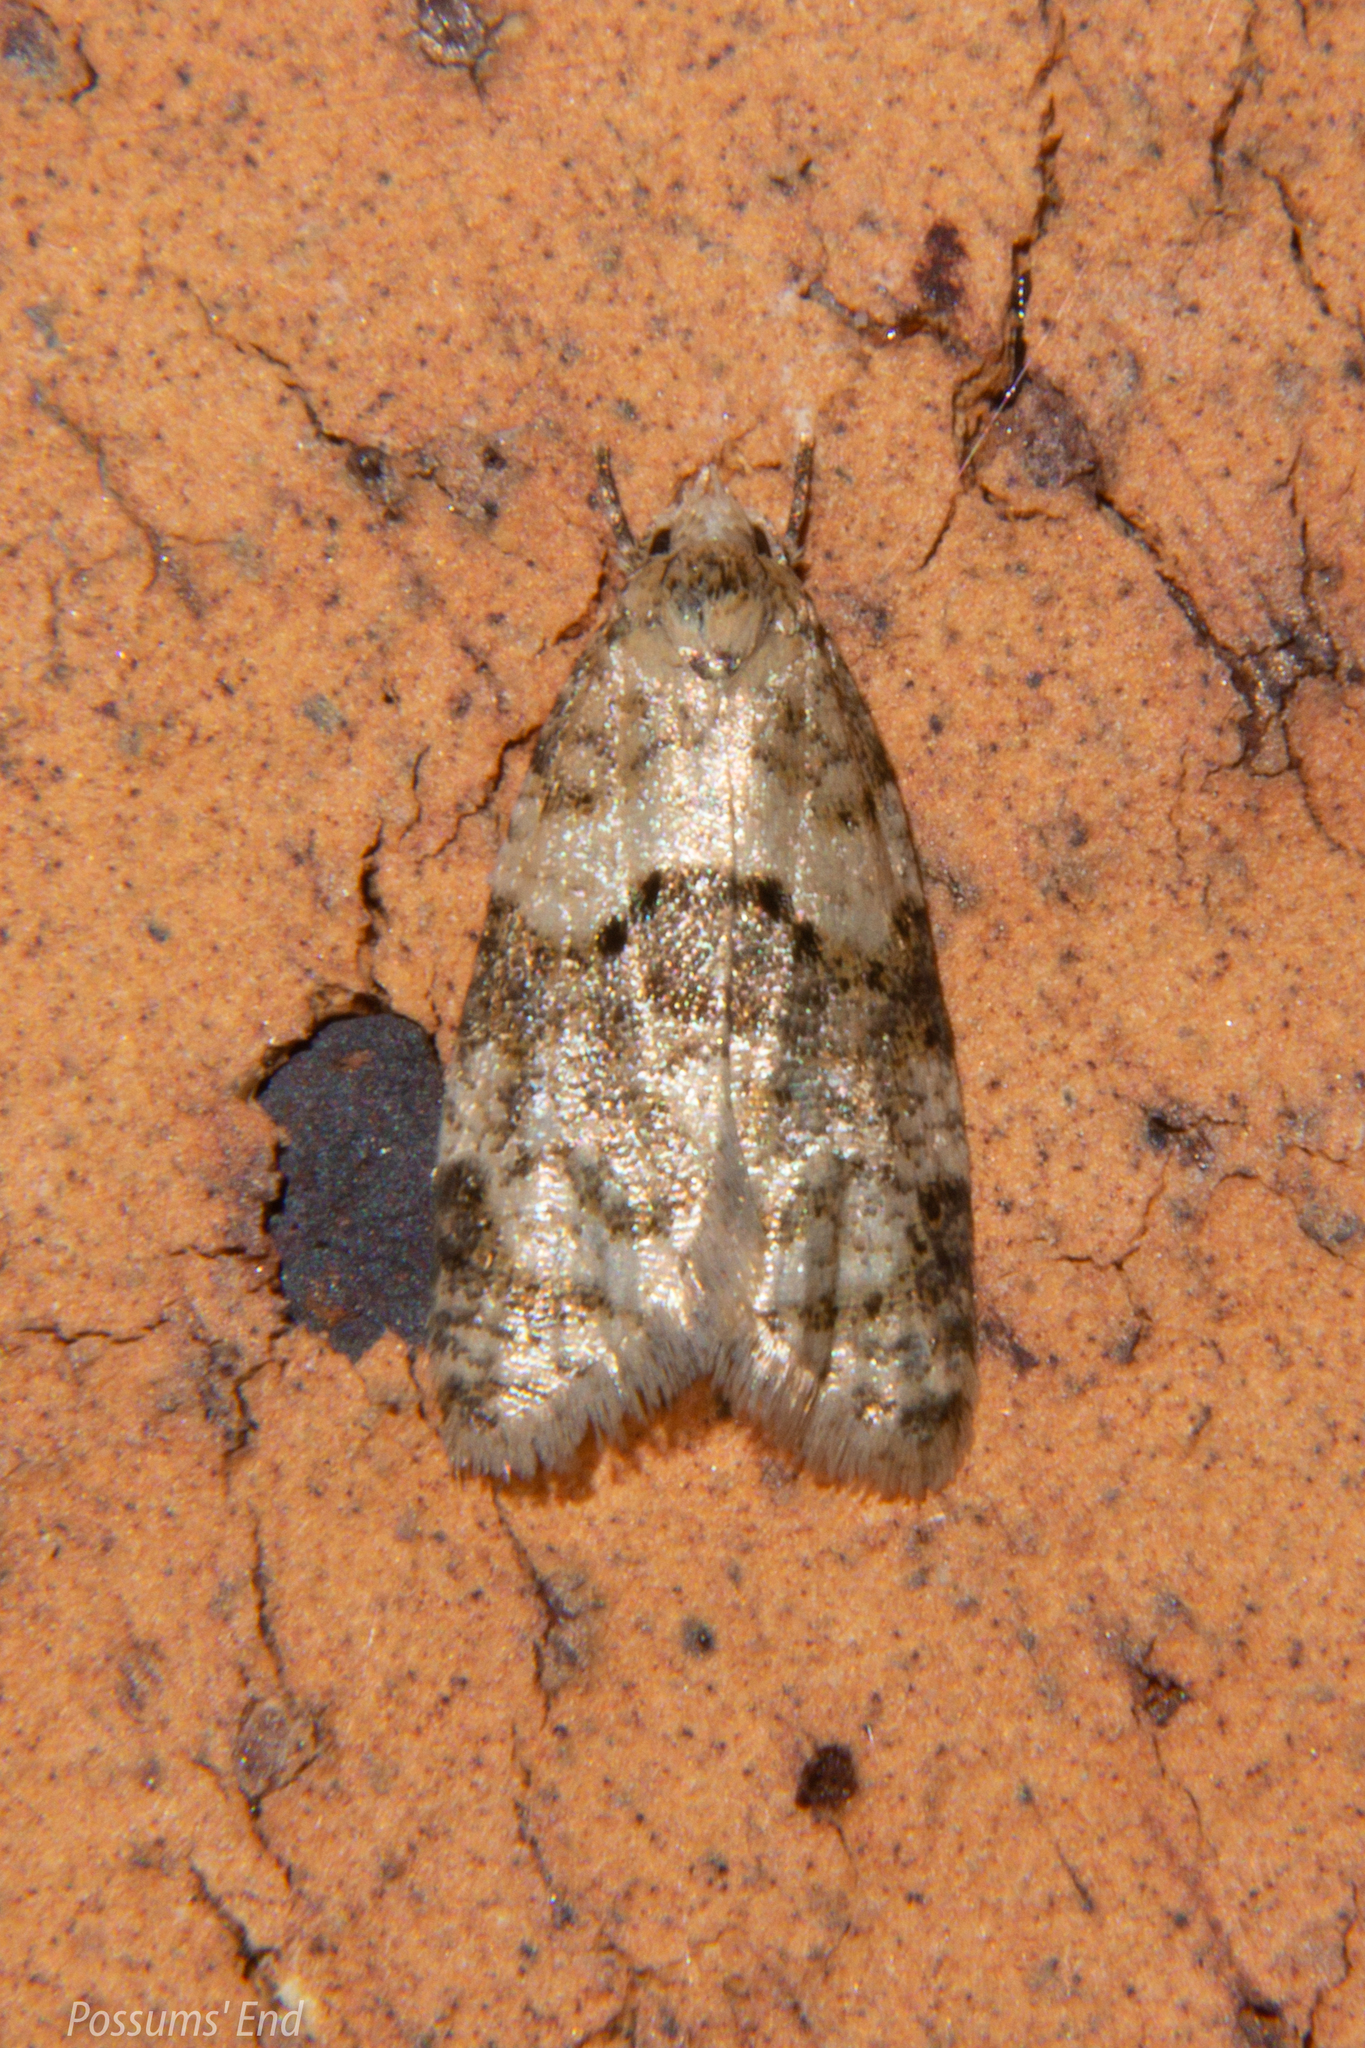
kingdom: Animalia
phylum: Arthropoda
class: Insecta
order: Lepidoptera
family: Tortricidae
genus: Dipterina
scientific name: Dipterina imbriferana
